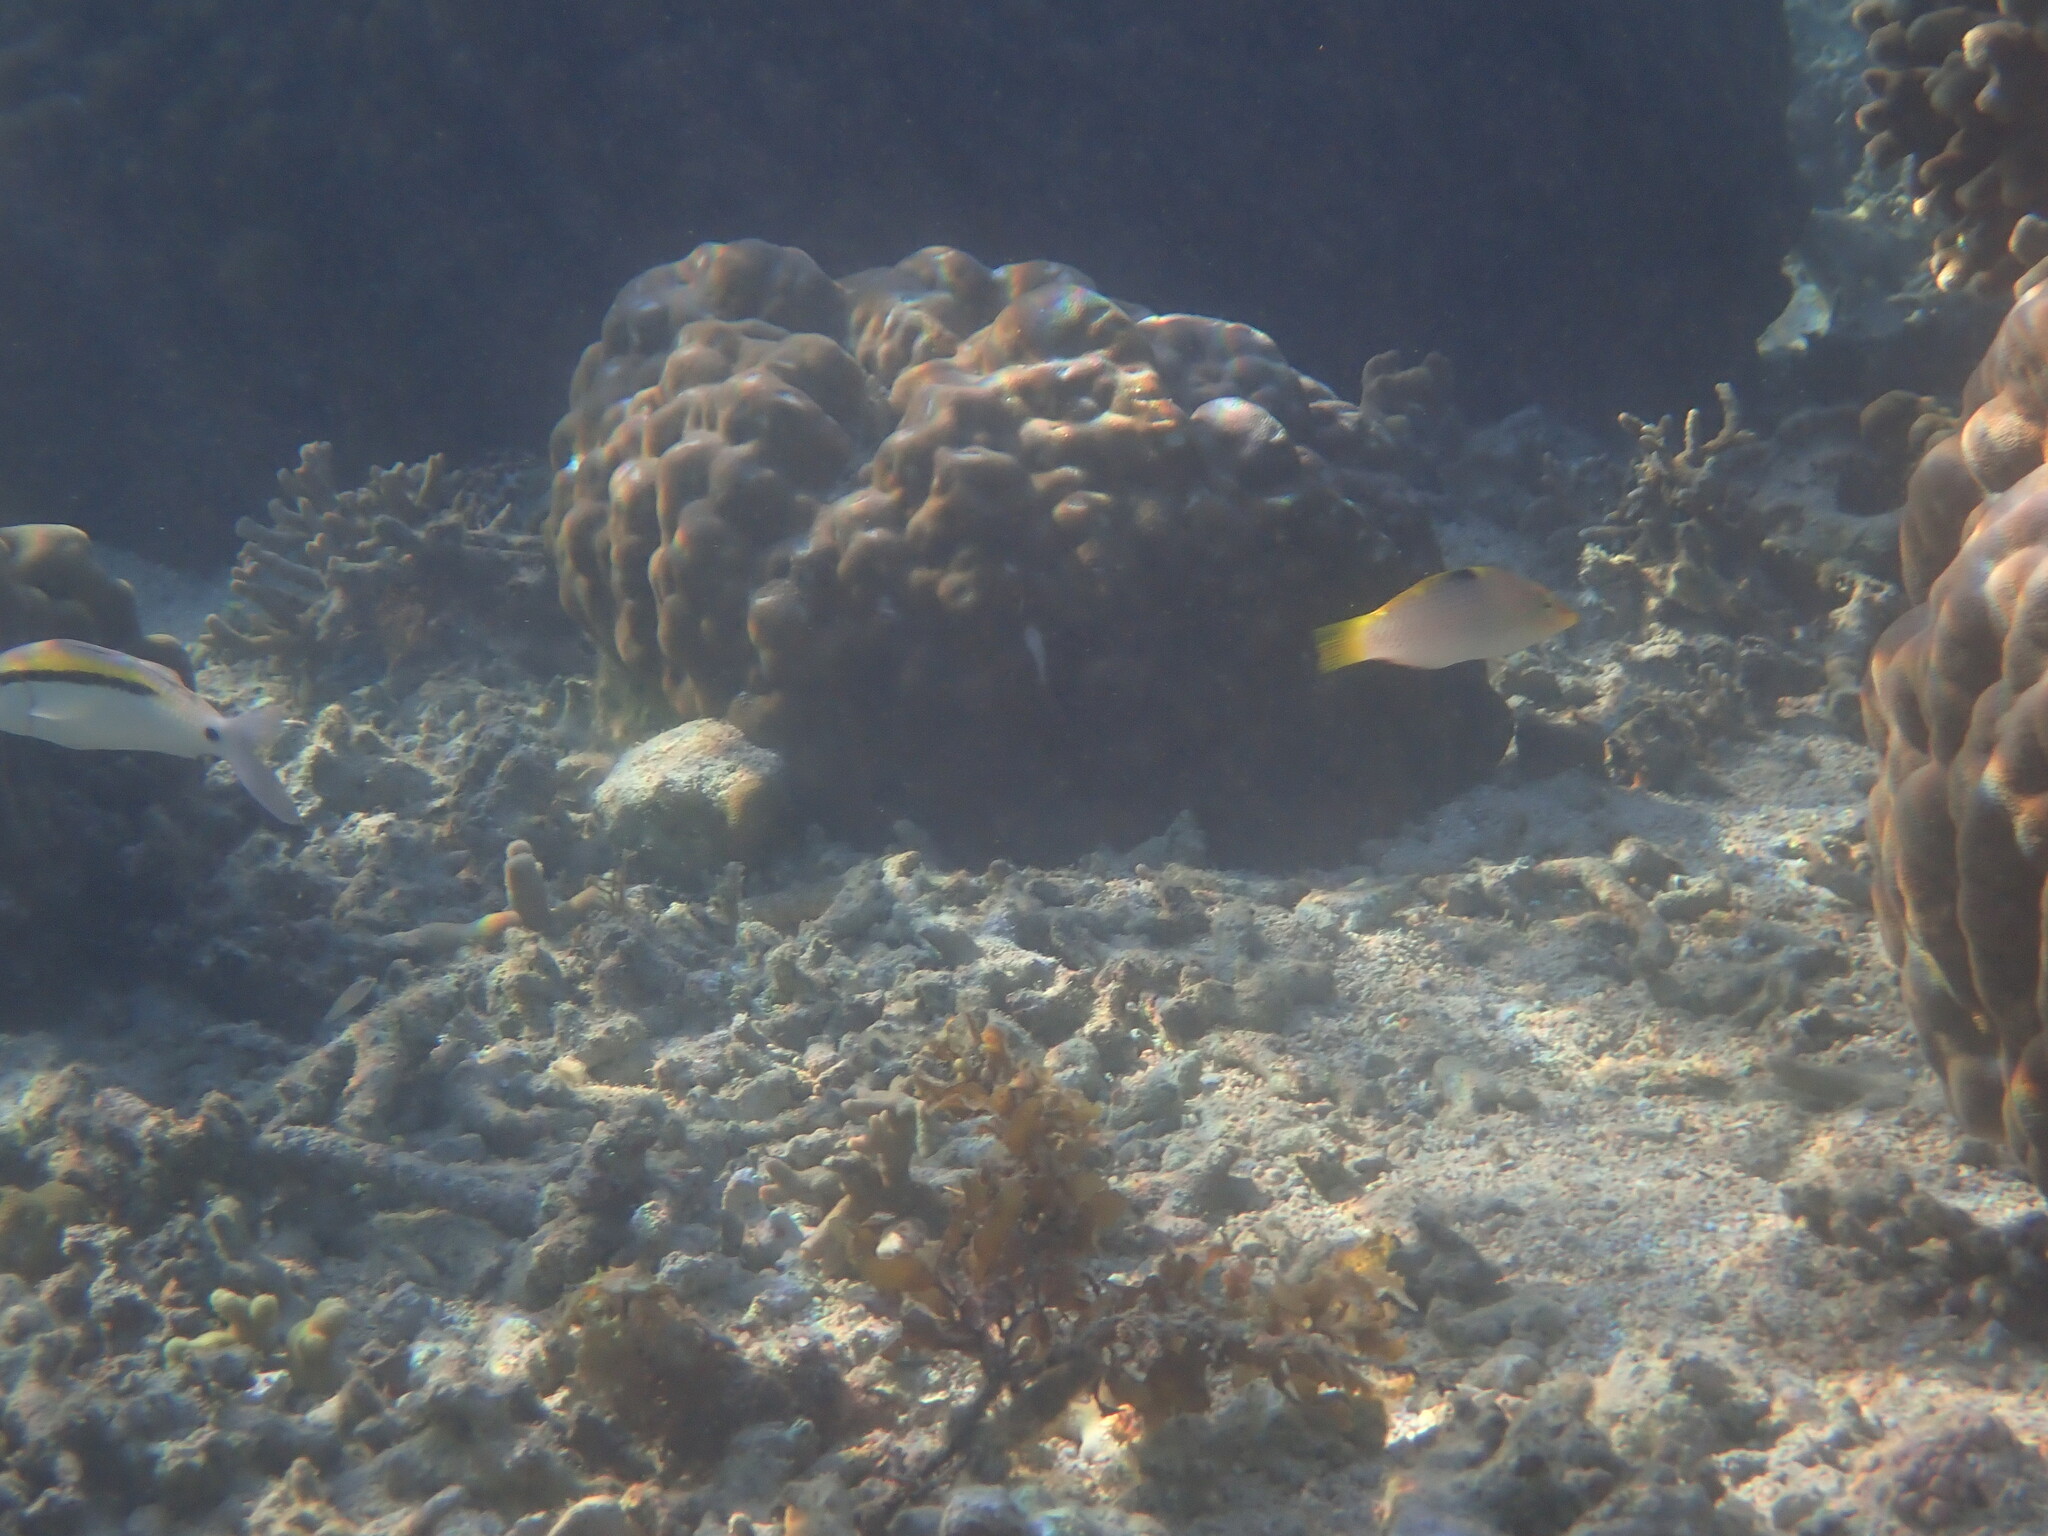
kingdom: Animalia
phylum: Chordata
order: Perciformes
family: Labridae
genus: Halichoeres
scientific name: Halichoeres hortulanus
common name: Checkerboard wrasse
